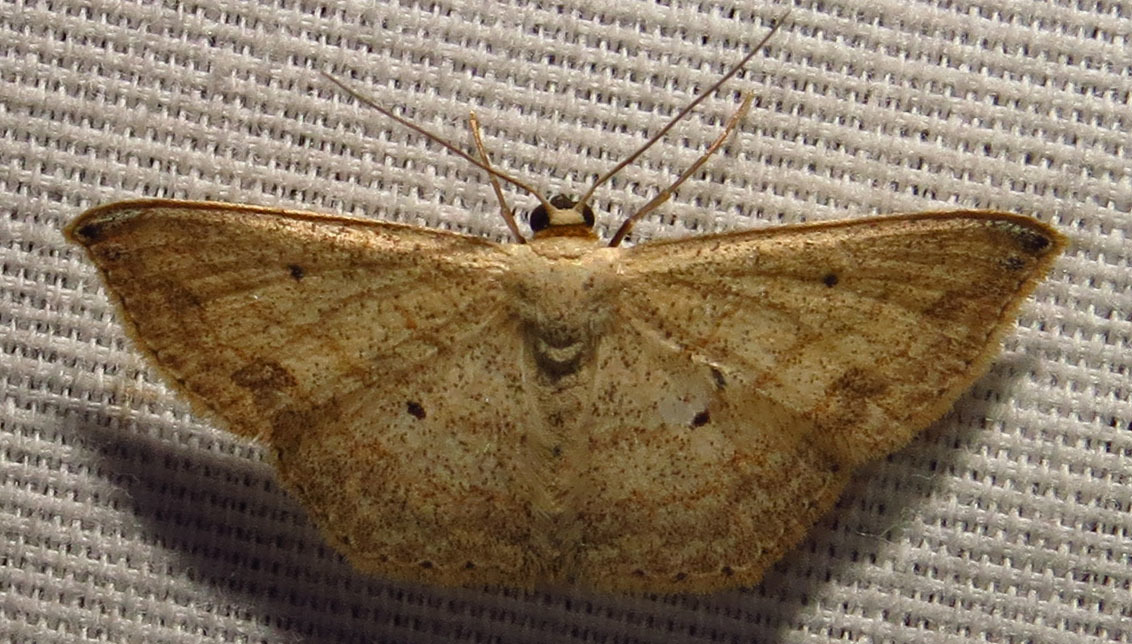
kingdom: Animalia
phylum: Arthropoda
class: Insecta
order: Lepidoptera
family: Geometridae
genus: Scopula
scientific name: Scopula umbilicata
